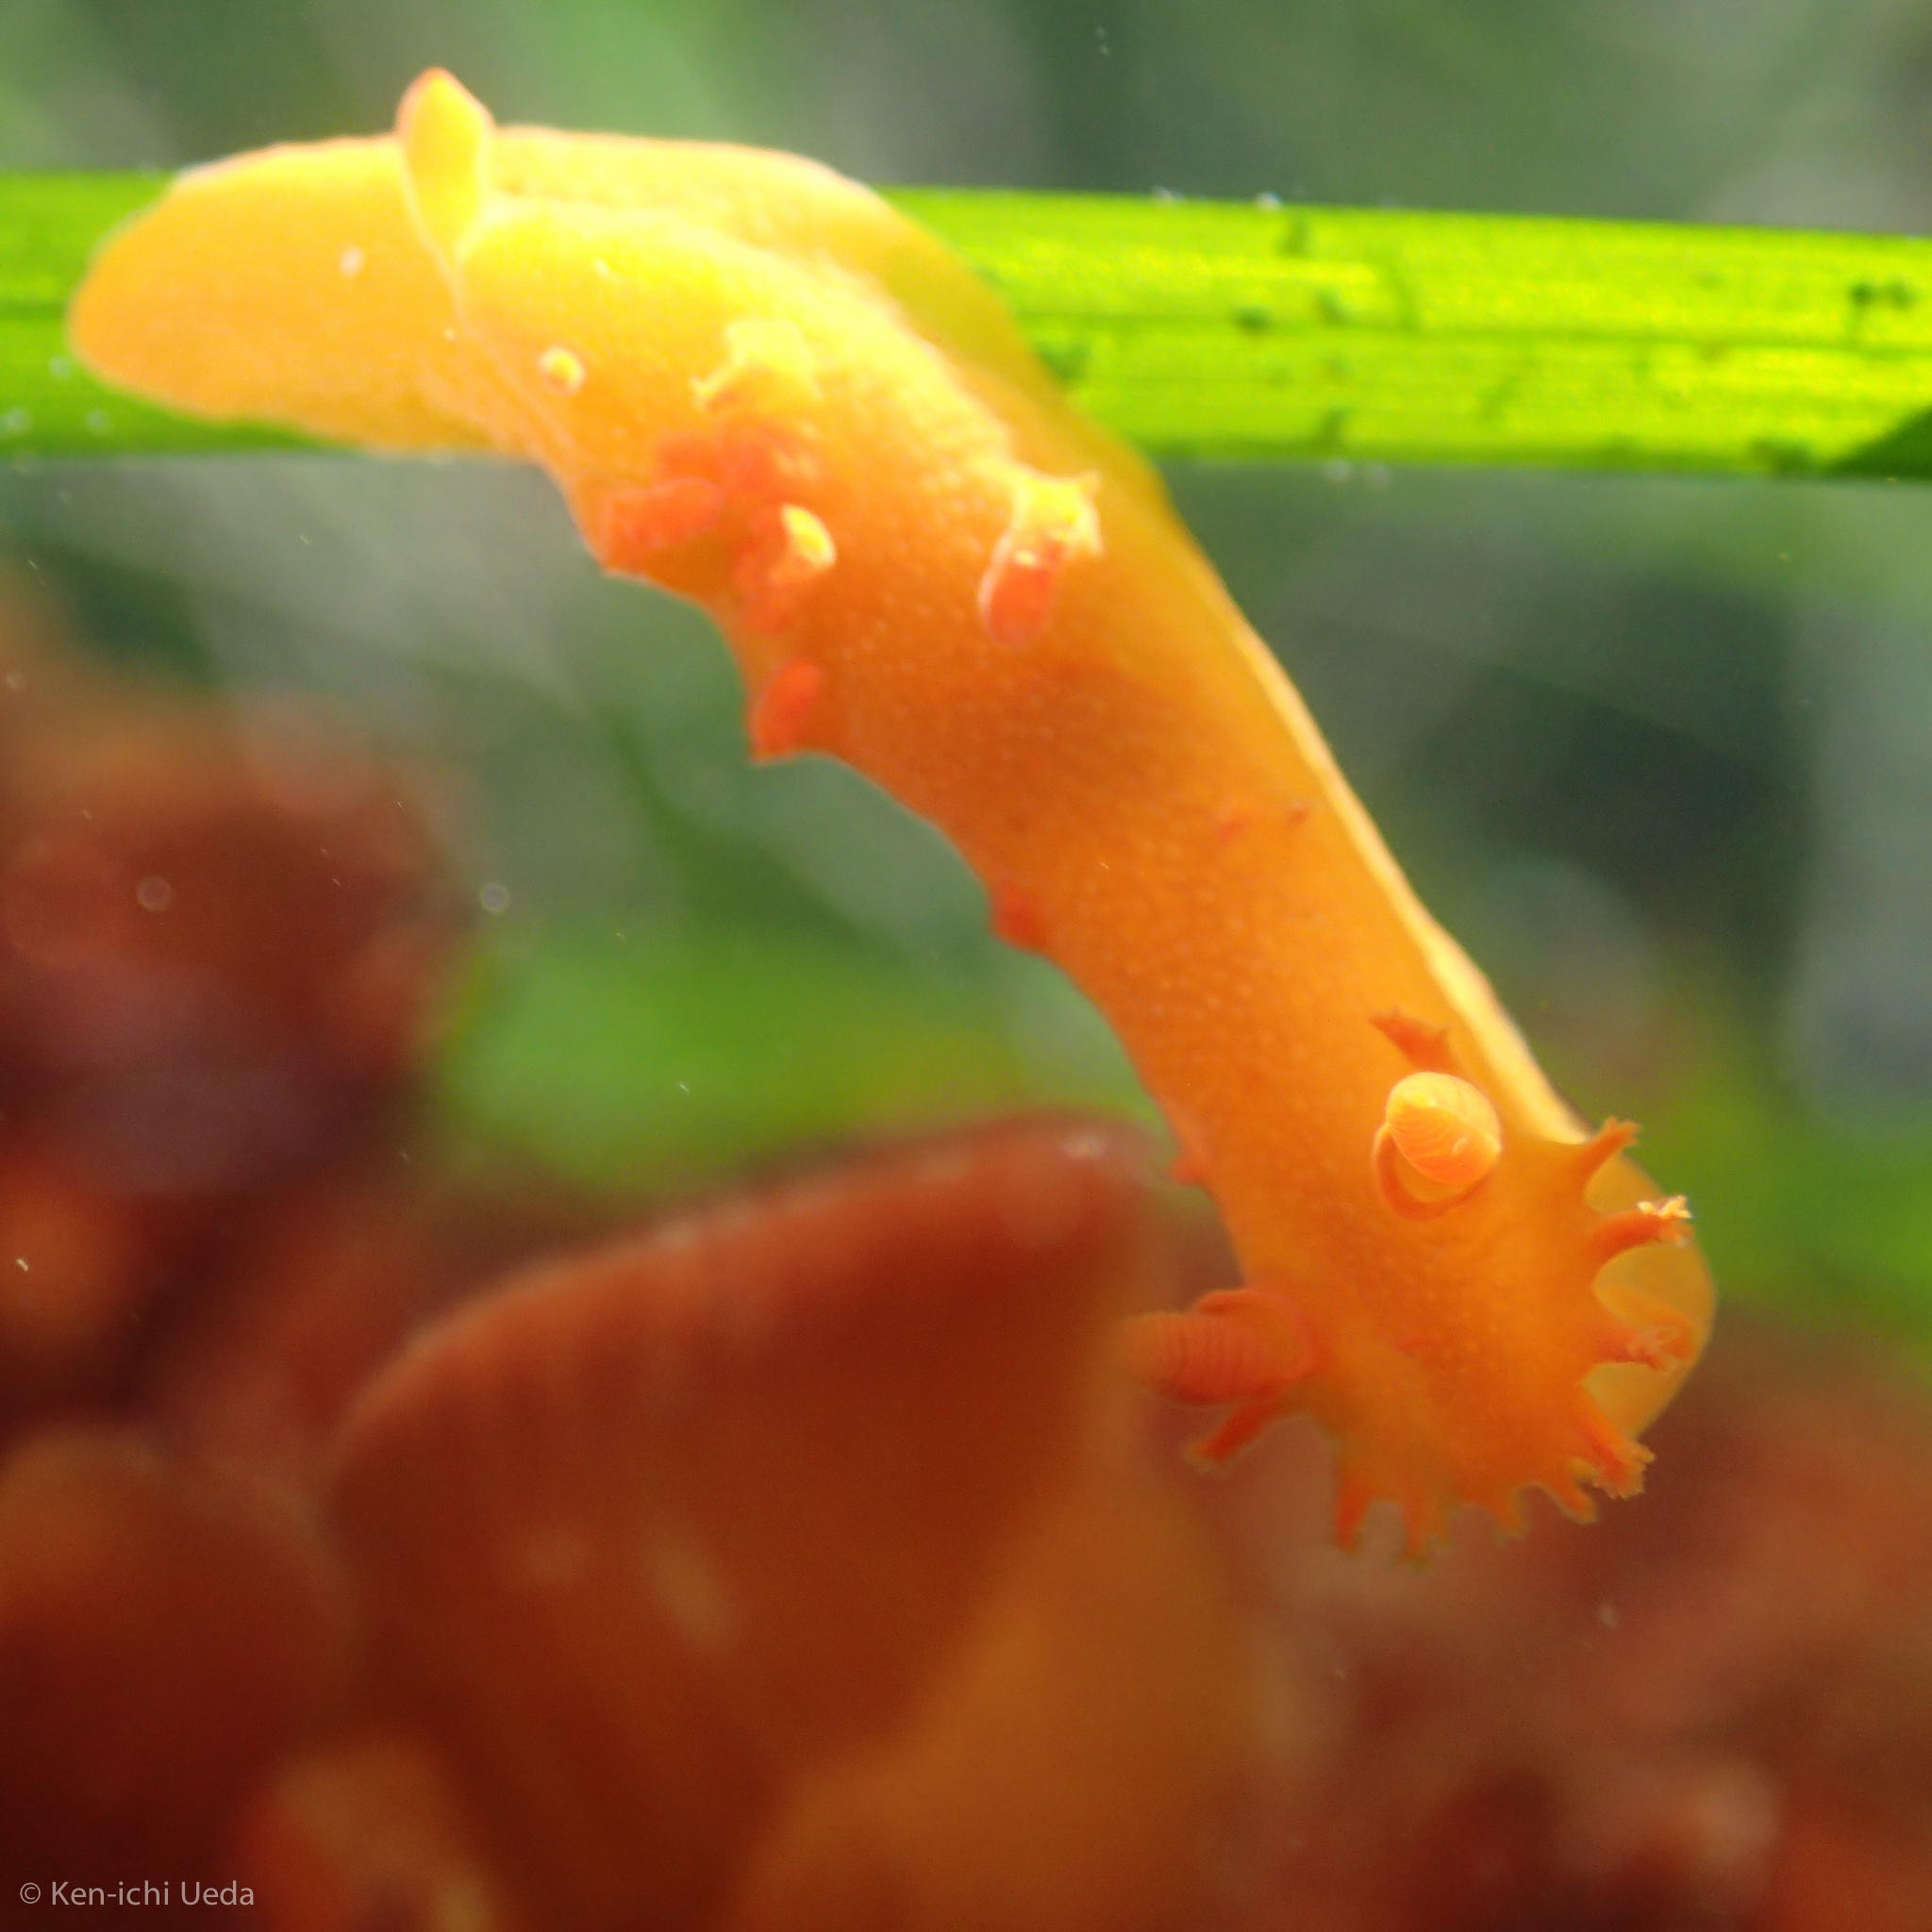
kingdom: Animalia
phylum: Mollusca
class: Gastropoda
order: Nudibranchia
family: Polyceridae
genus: Triopha
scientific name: Triopha maculata
